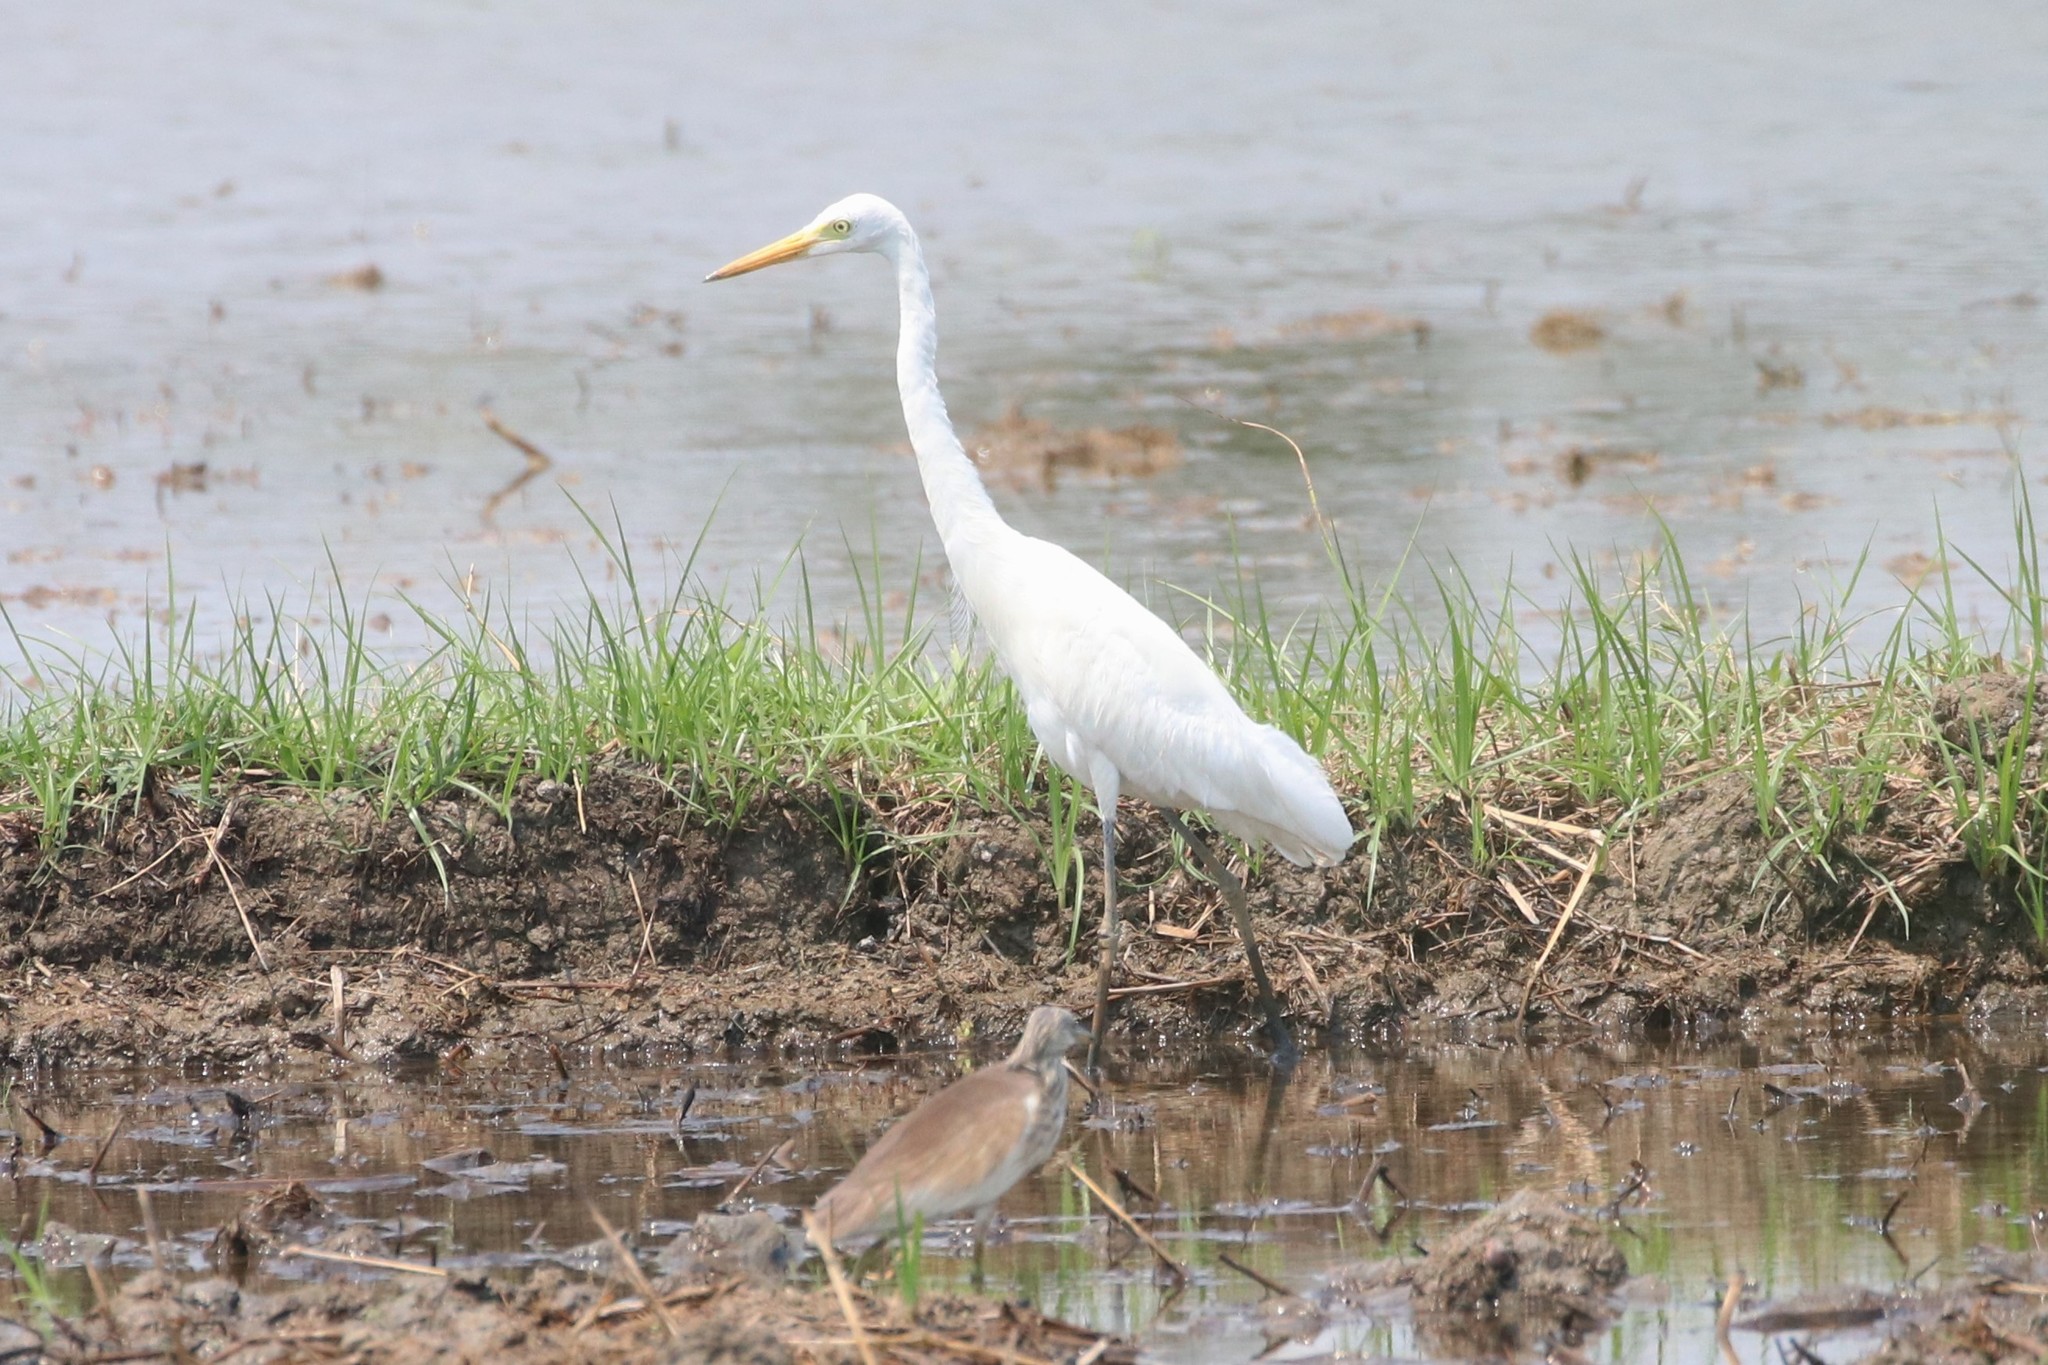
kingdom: Animalia
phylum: Chordata
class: Aves
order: Pelecaniformes
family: Ardeidae
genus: Egretta
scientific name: Egretta intermedia
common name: Intermediate egret
